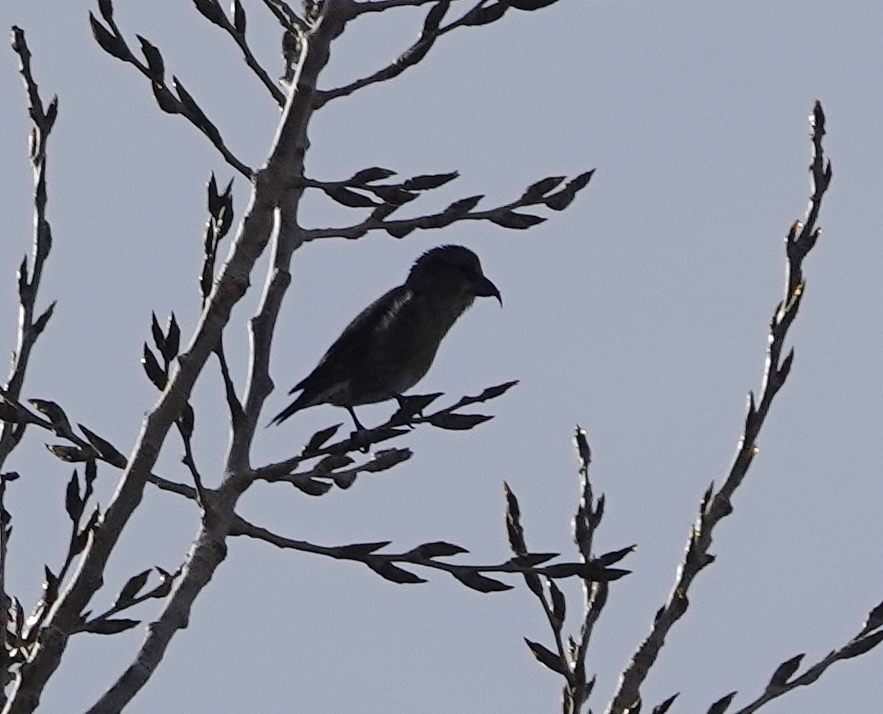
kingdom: Animalia
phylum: Chordata
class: Aves
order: Passeriformes
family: Fringillidae
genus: Loxia
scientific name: Loxia curvirostra
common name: Red crossbill
